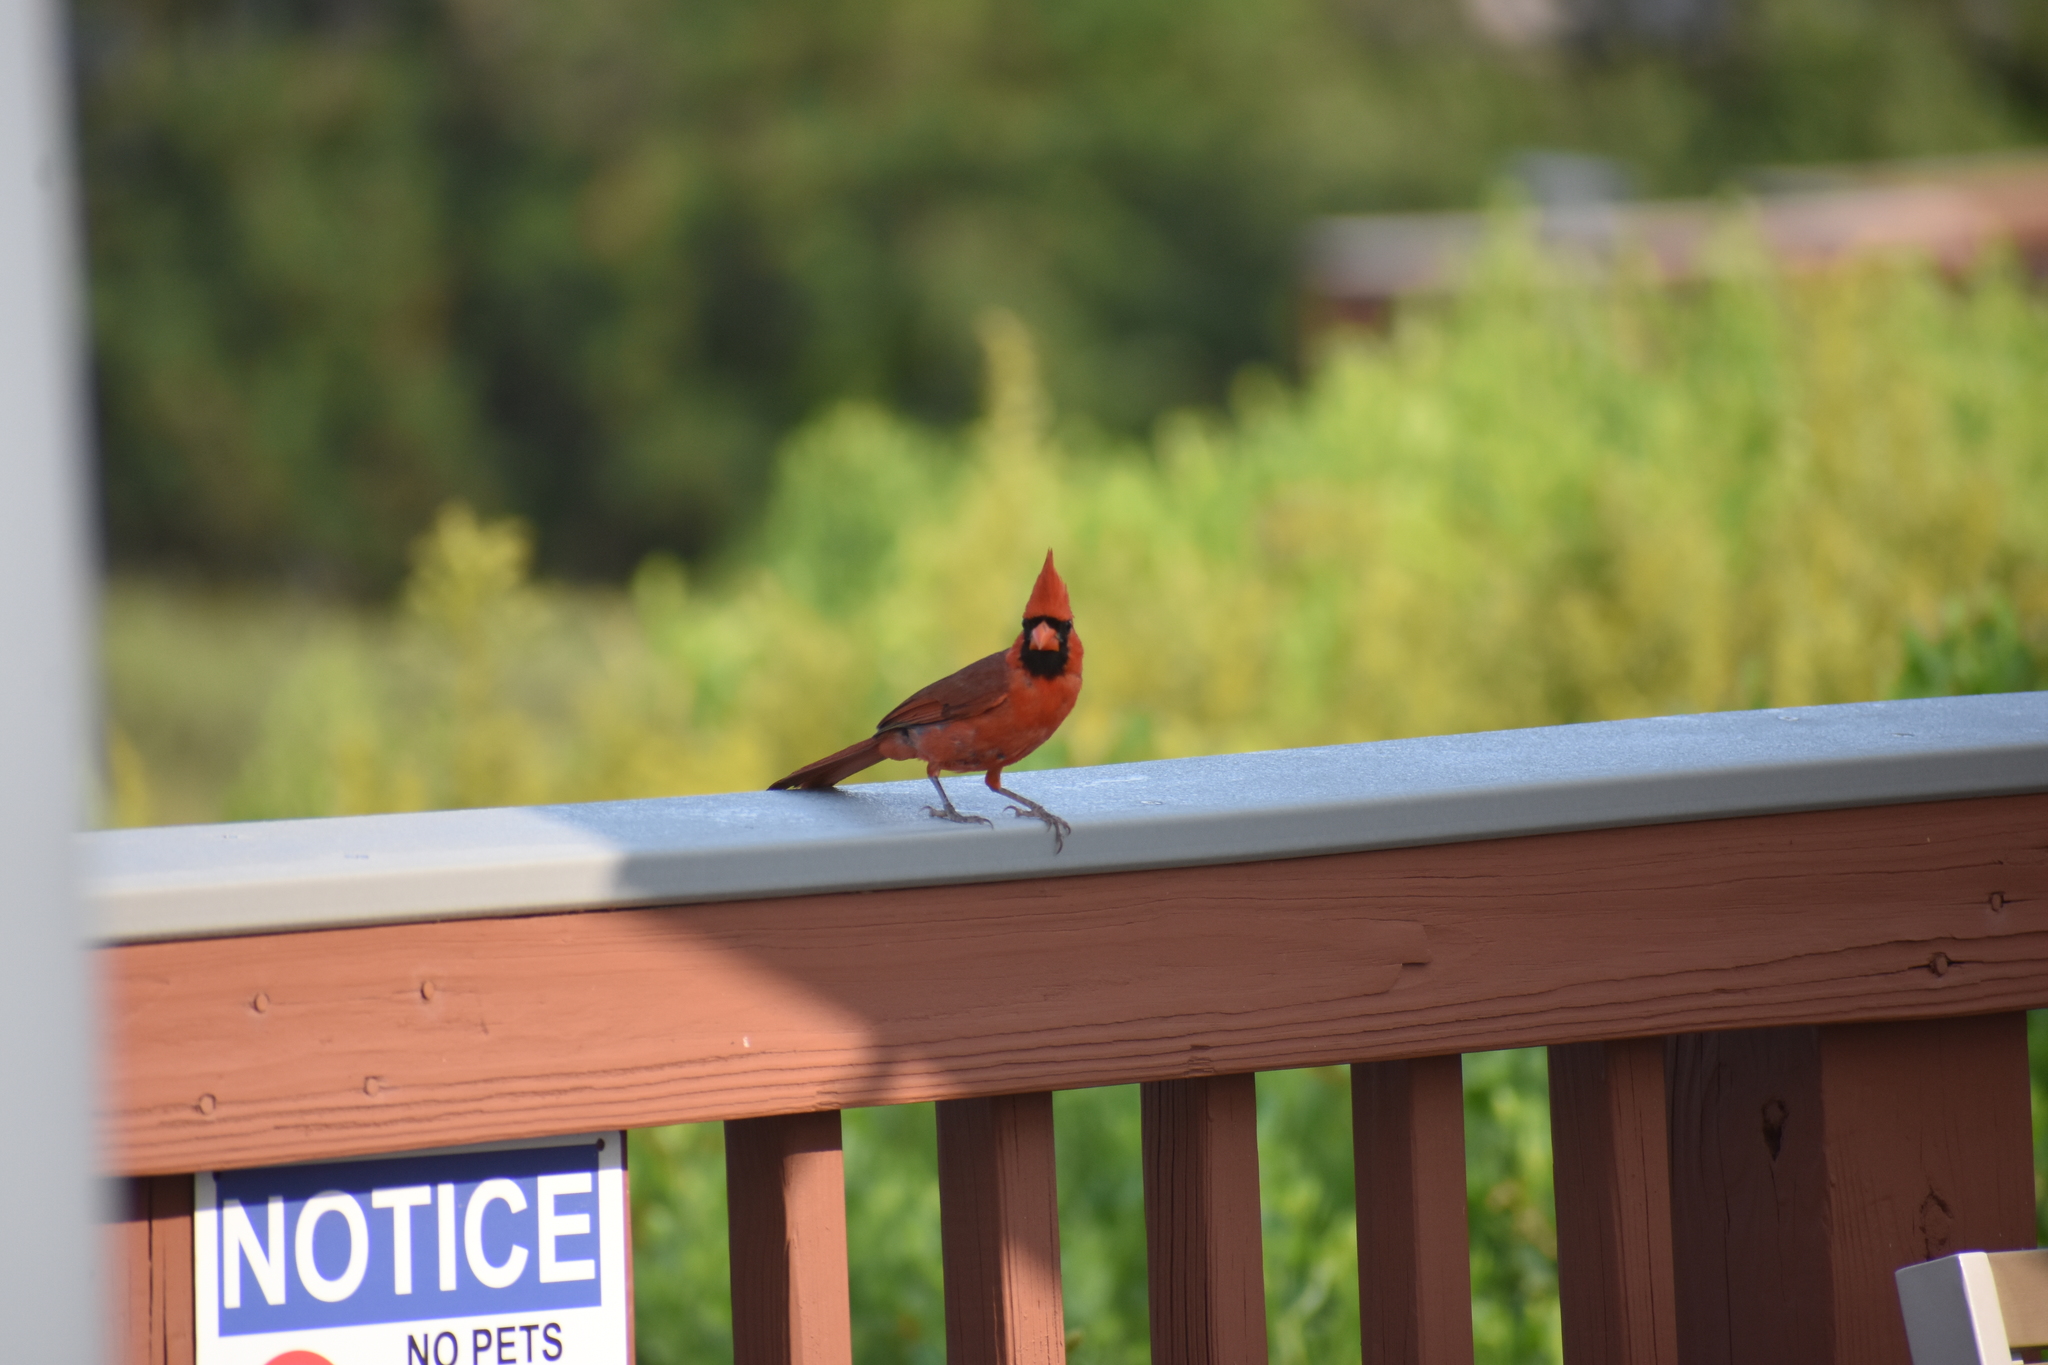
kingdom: Animalia
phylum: Chordata
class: Aves
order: Passeriformes
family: Cardinalidae
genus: Cardinalis
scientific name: Cardinalis cardinalis
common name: Northern cardinal
